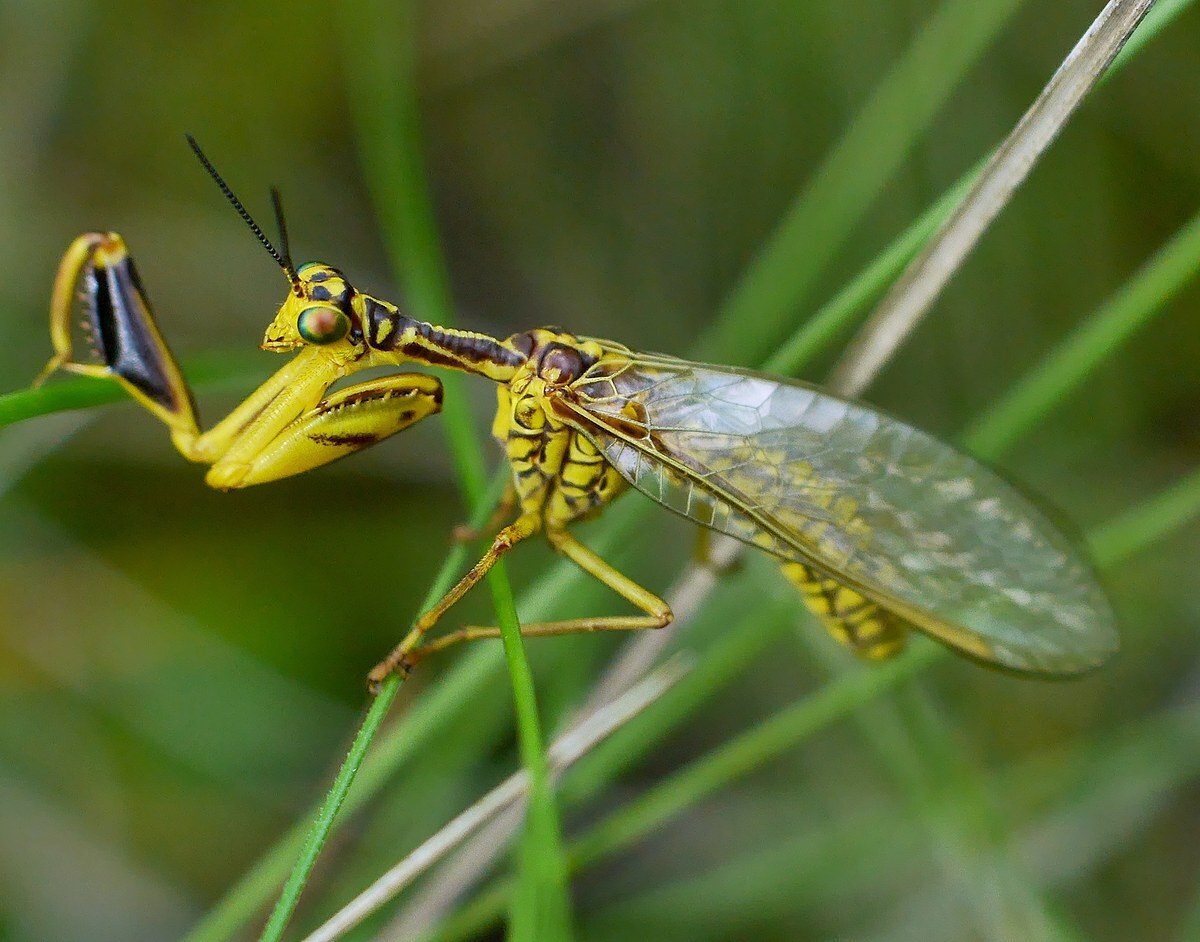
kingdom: Animalia
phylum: Arthropoda
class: Insecta
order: Neuroptera
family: Mantispidae
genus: Mantispa
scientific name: Mantispa
